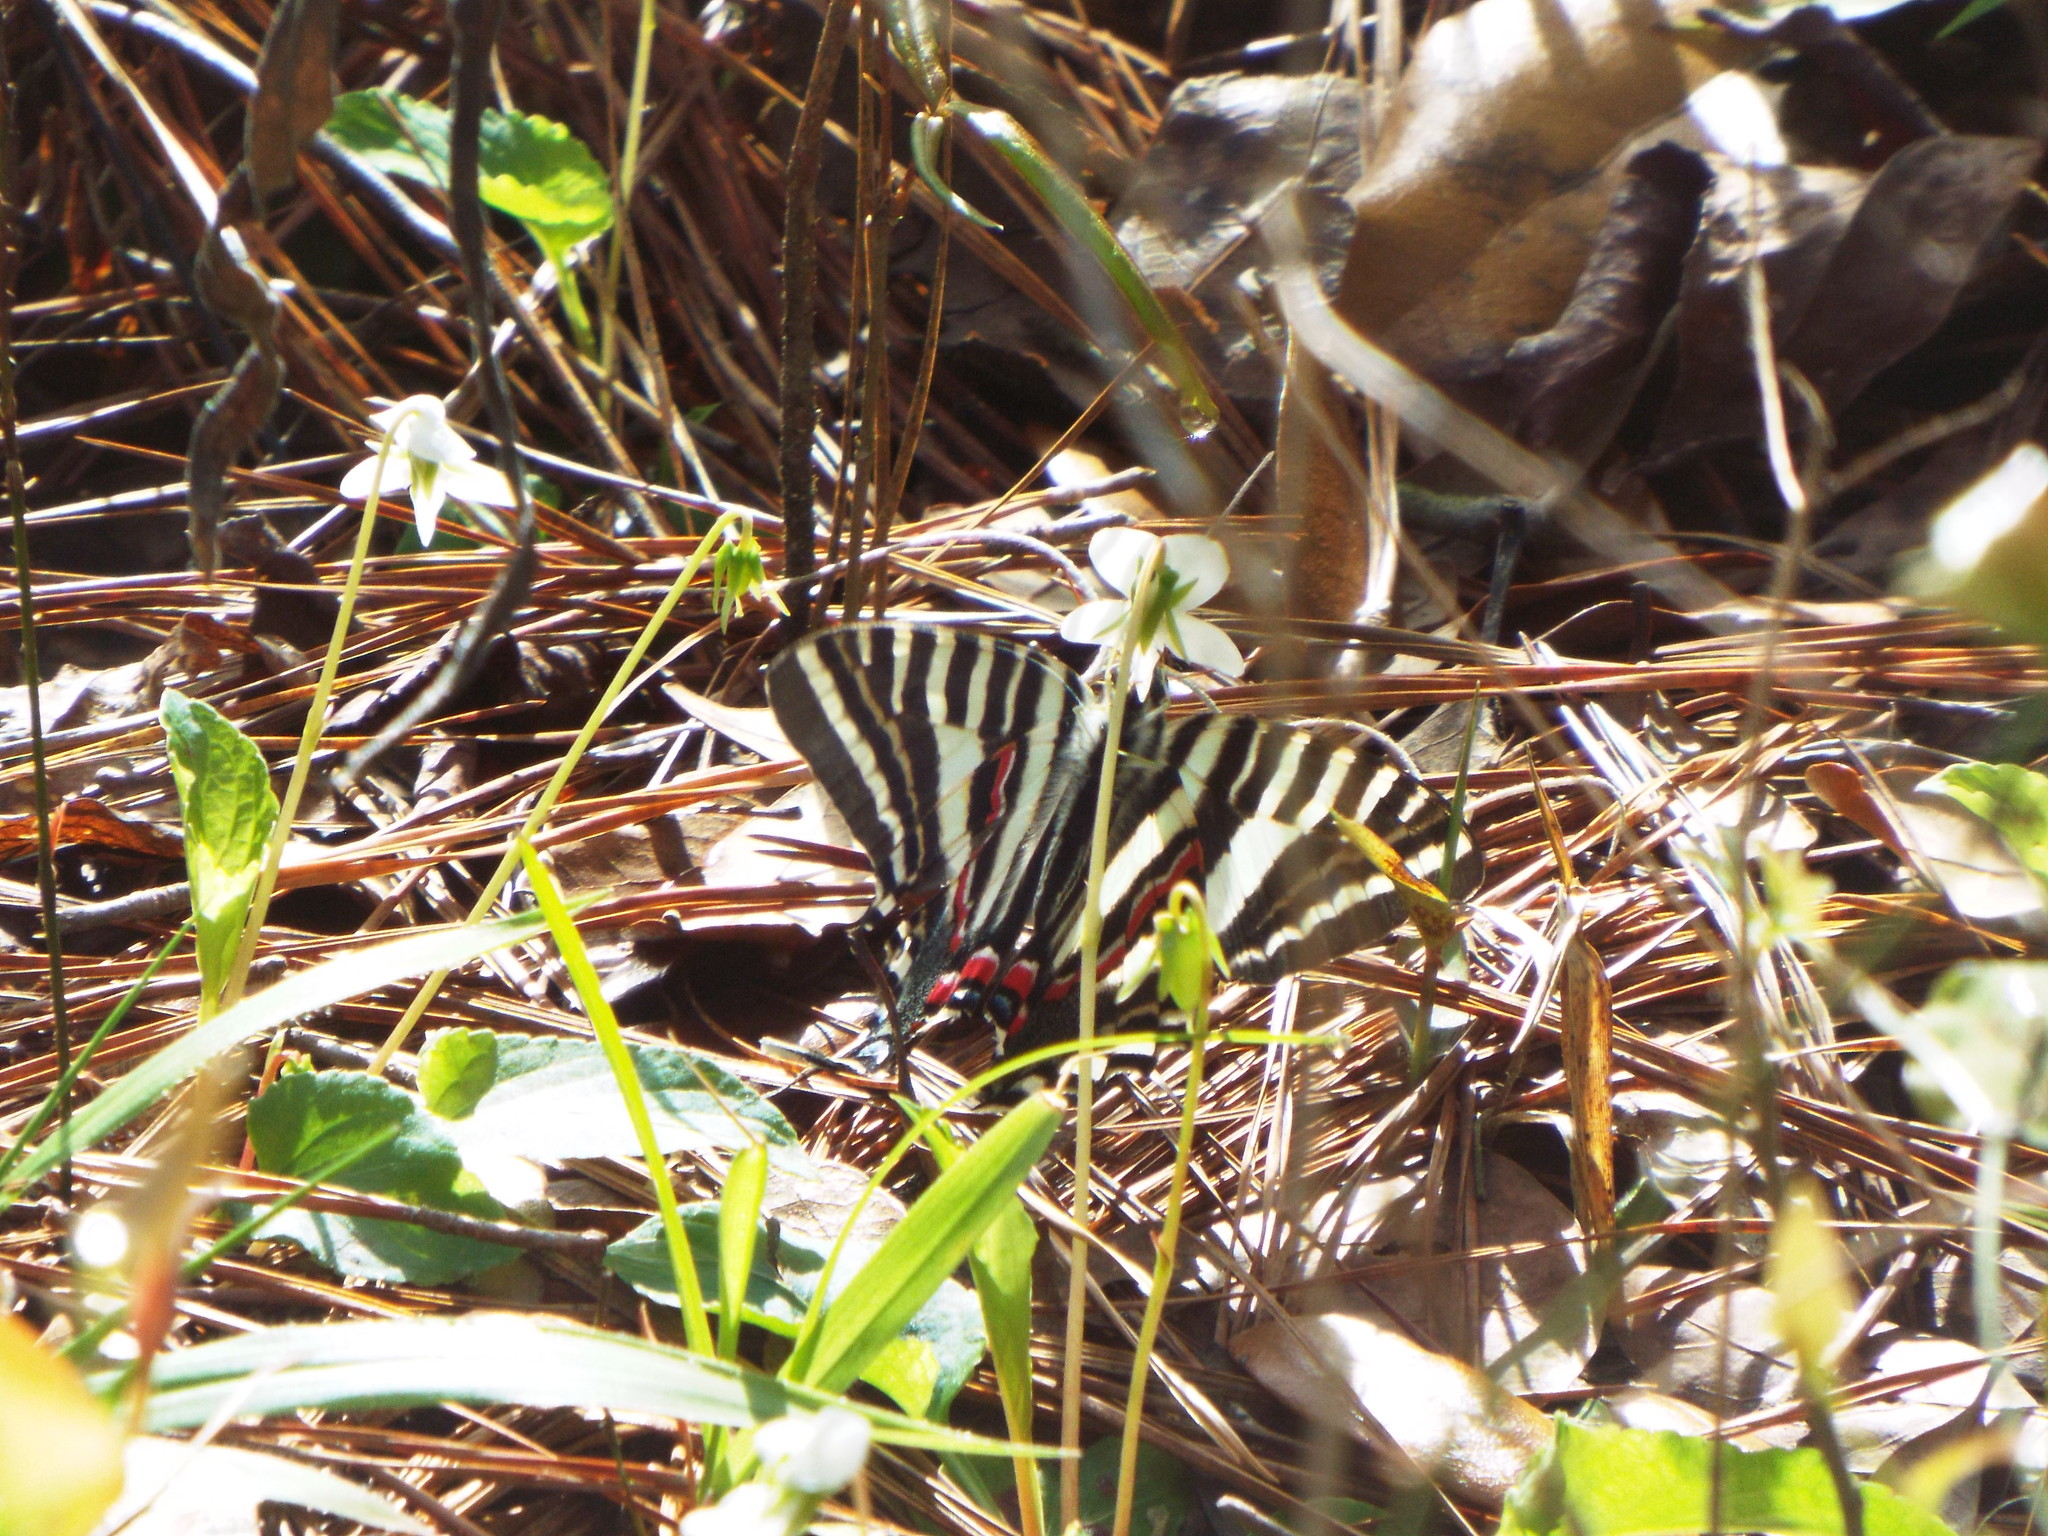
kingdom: Animalia
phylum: Arthropoda
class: Insecta
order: Lepidoptera
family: Papilionidae
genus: Protographium
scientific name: Protographium marcellus
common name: Zebra swallowtail
